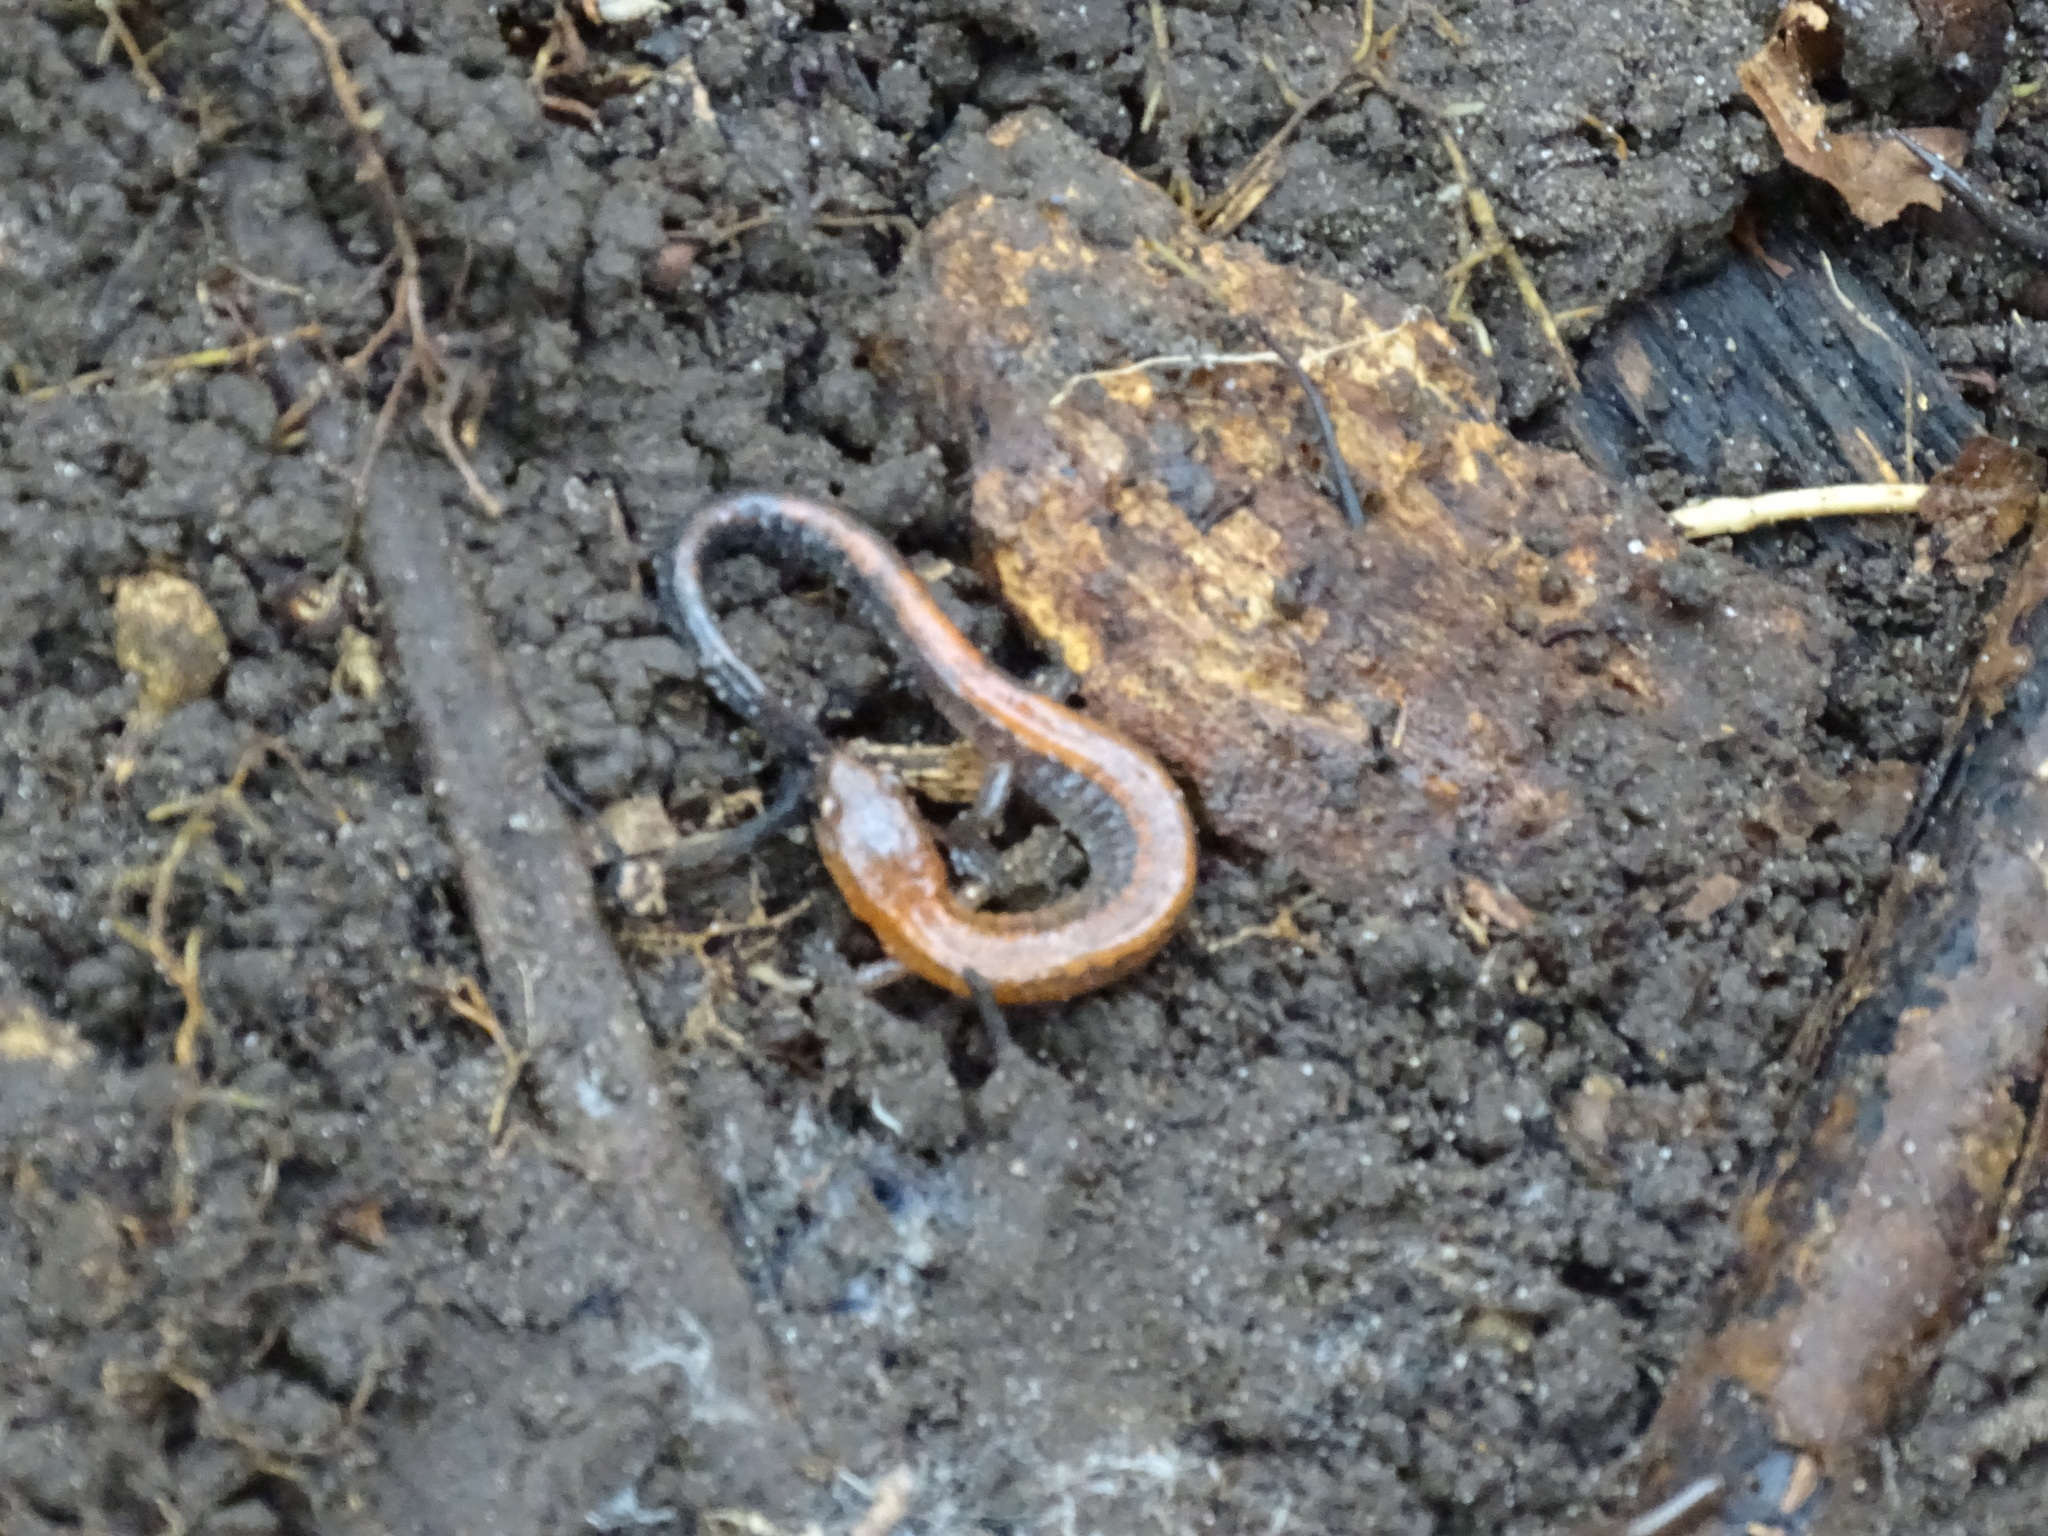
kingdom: Animalia
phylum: Chordata
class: Amphibia
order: Caudata
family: Plethodontidae
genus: Plethodon
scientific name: Plethodon cinereus
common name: Redback salamander
